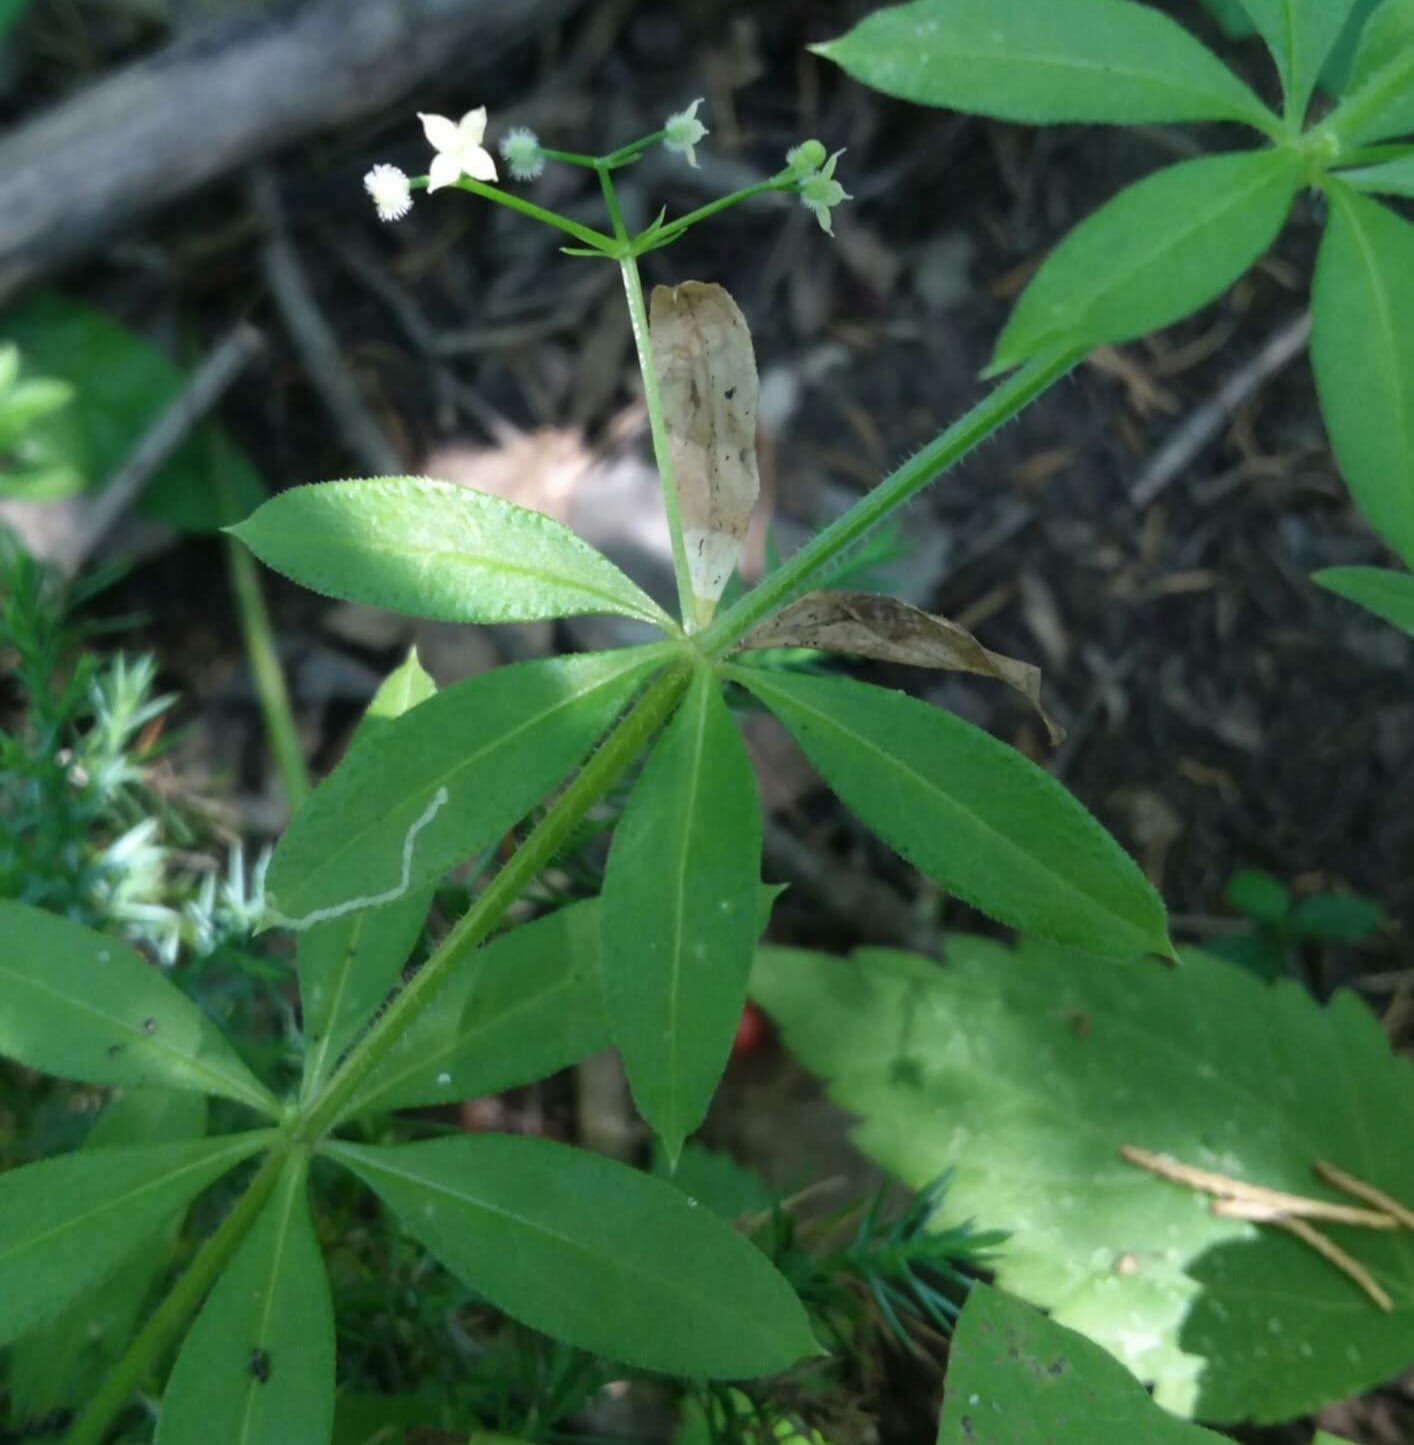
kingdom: Animalia
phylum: Arthropoda
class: Insecta
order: Diptera
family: Agromyzidae
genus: Liriomyza
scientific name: Liriomyza galiivora
